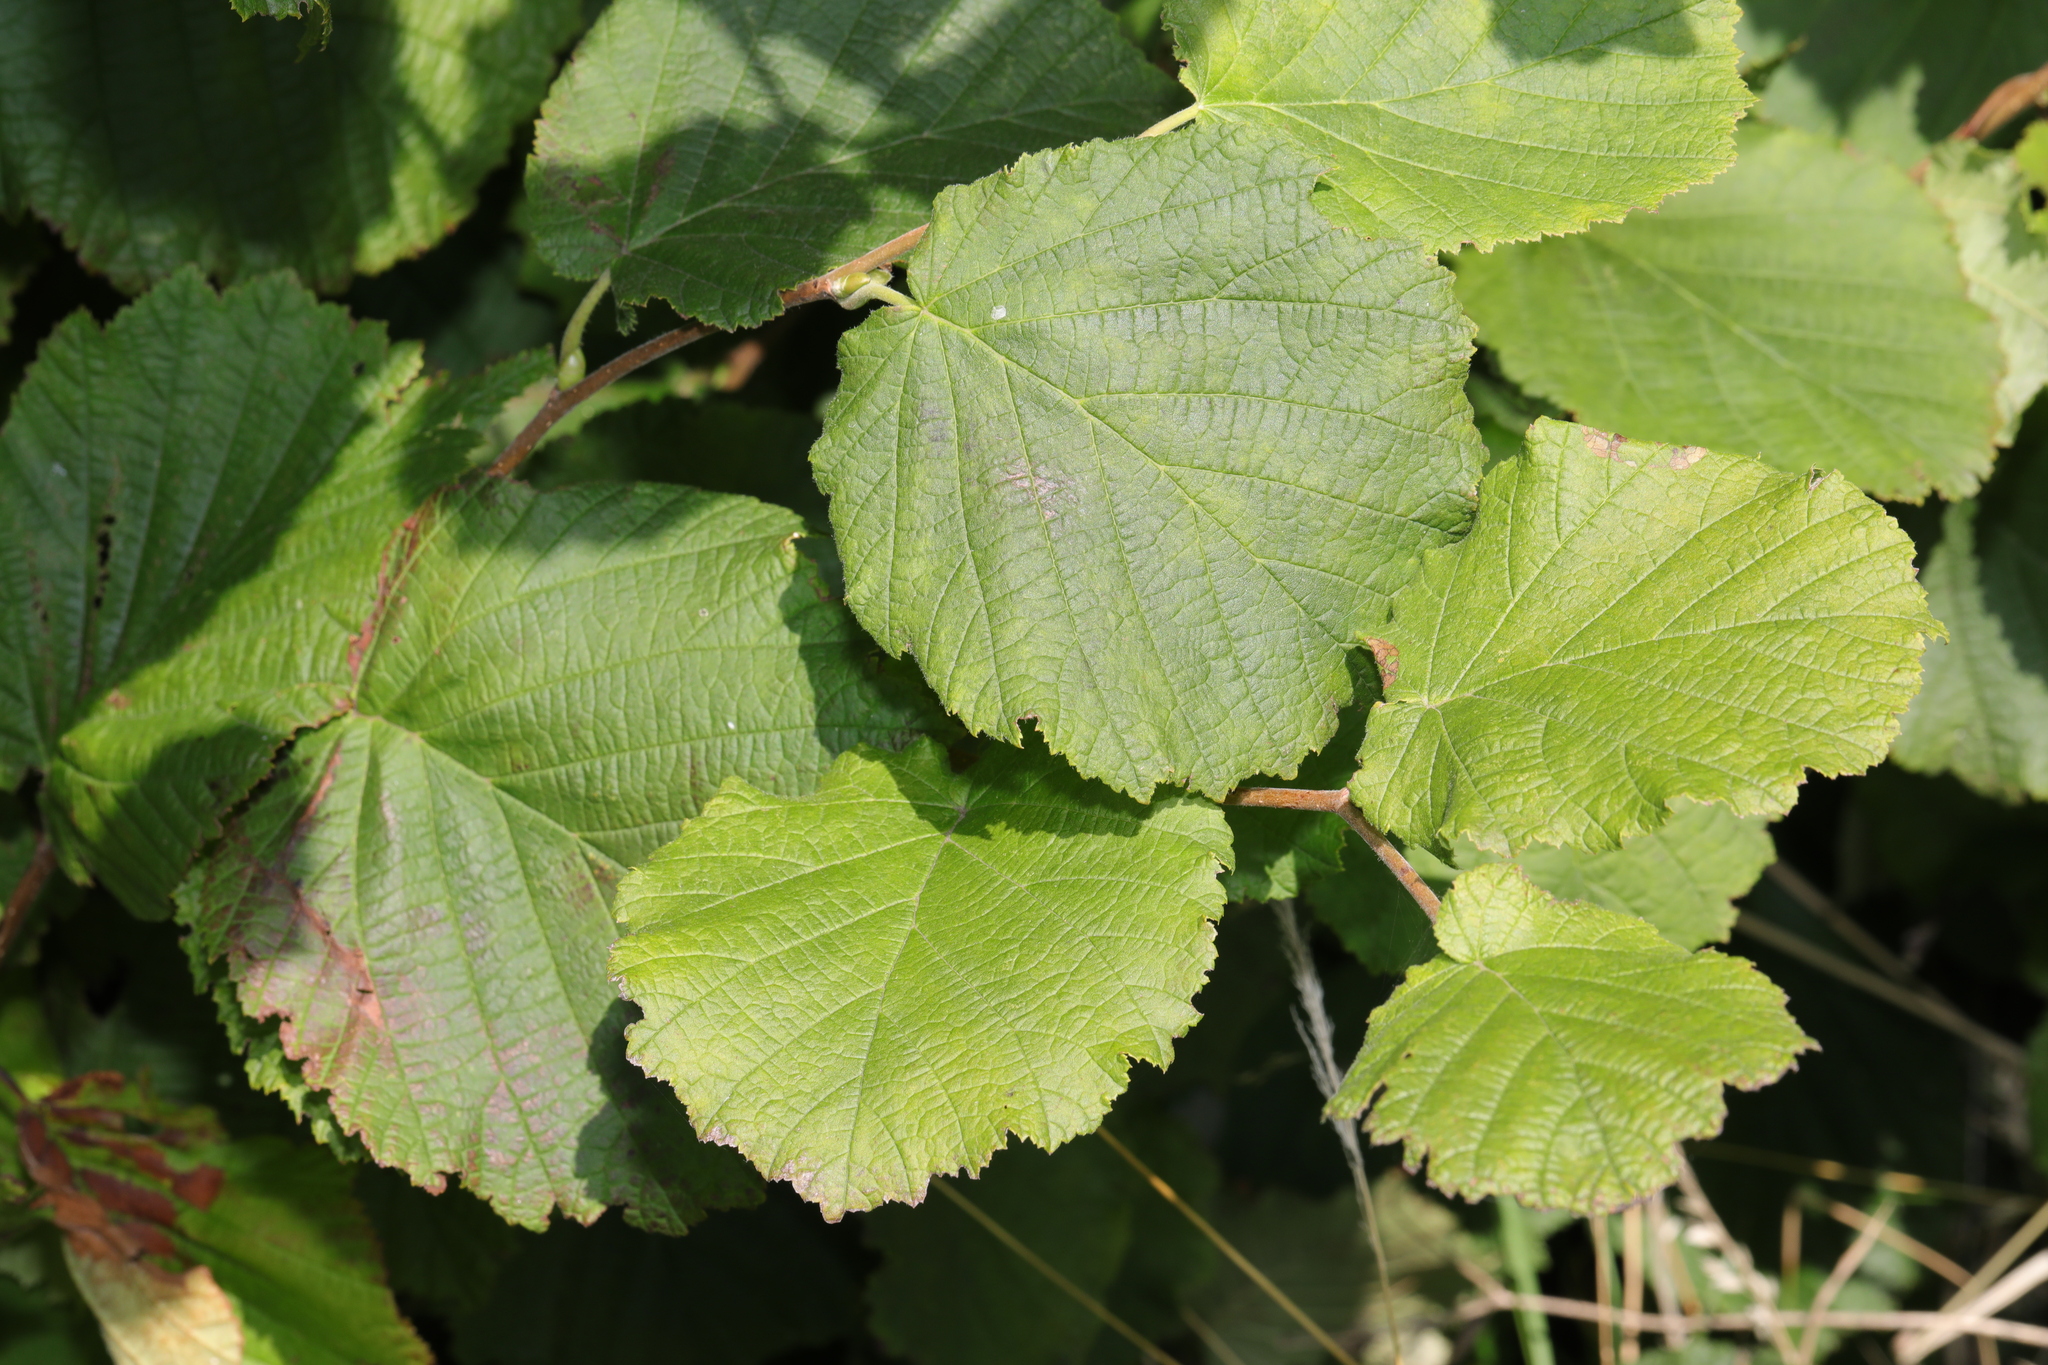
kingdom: Plantae
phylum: Tracheophyta
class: Magnoliopsida
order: Fagales
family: Betulaceae
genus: Corylus
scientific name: Corylus avellana
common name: European hazel
